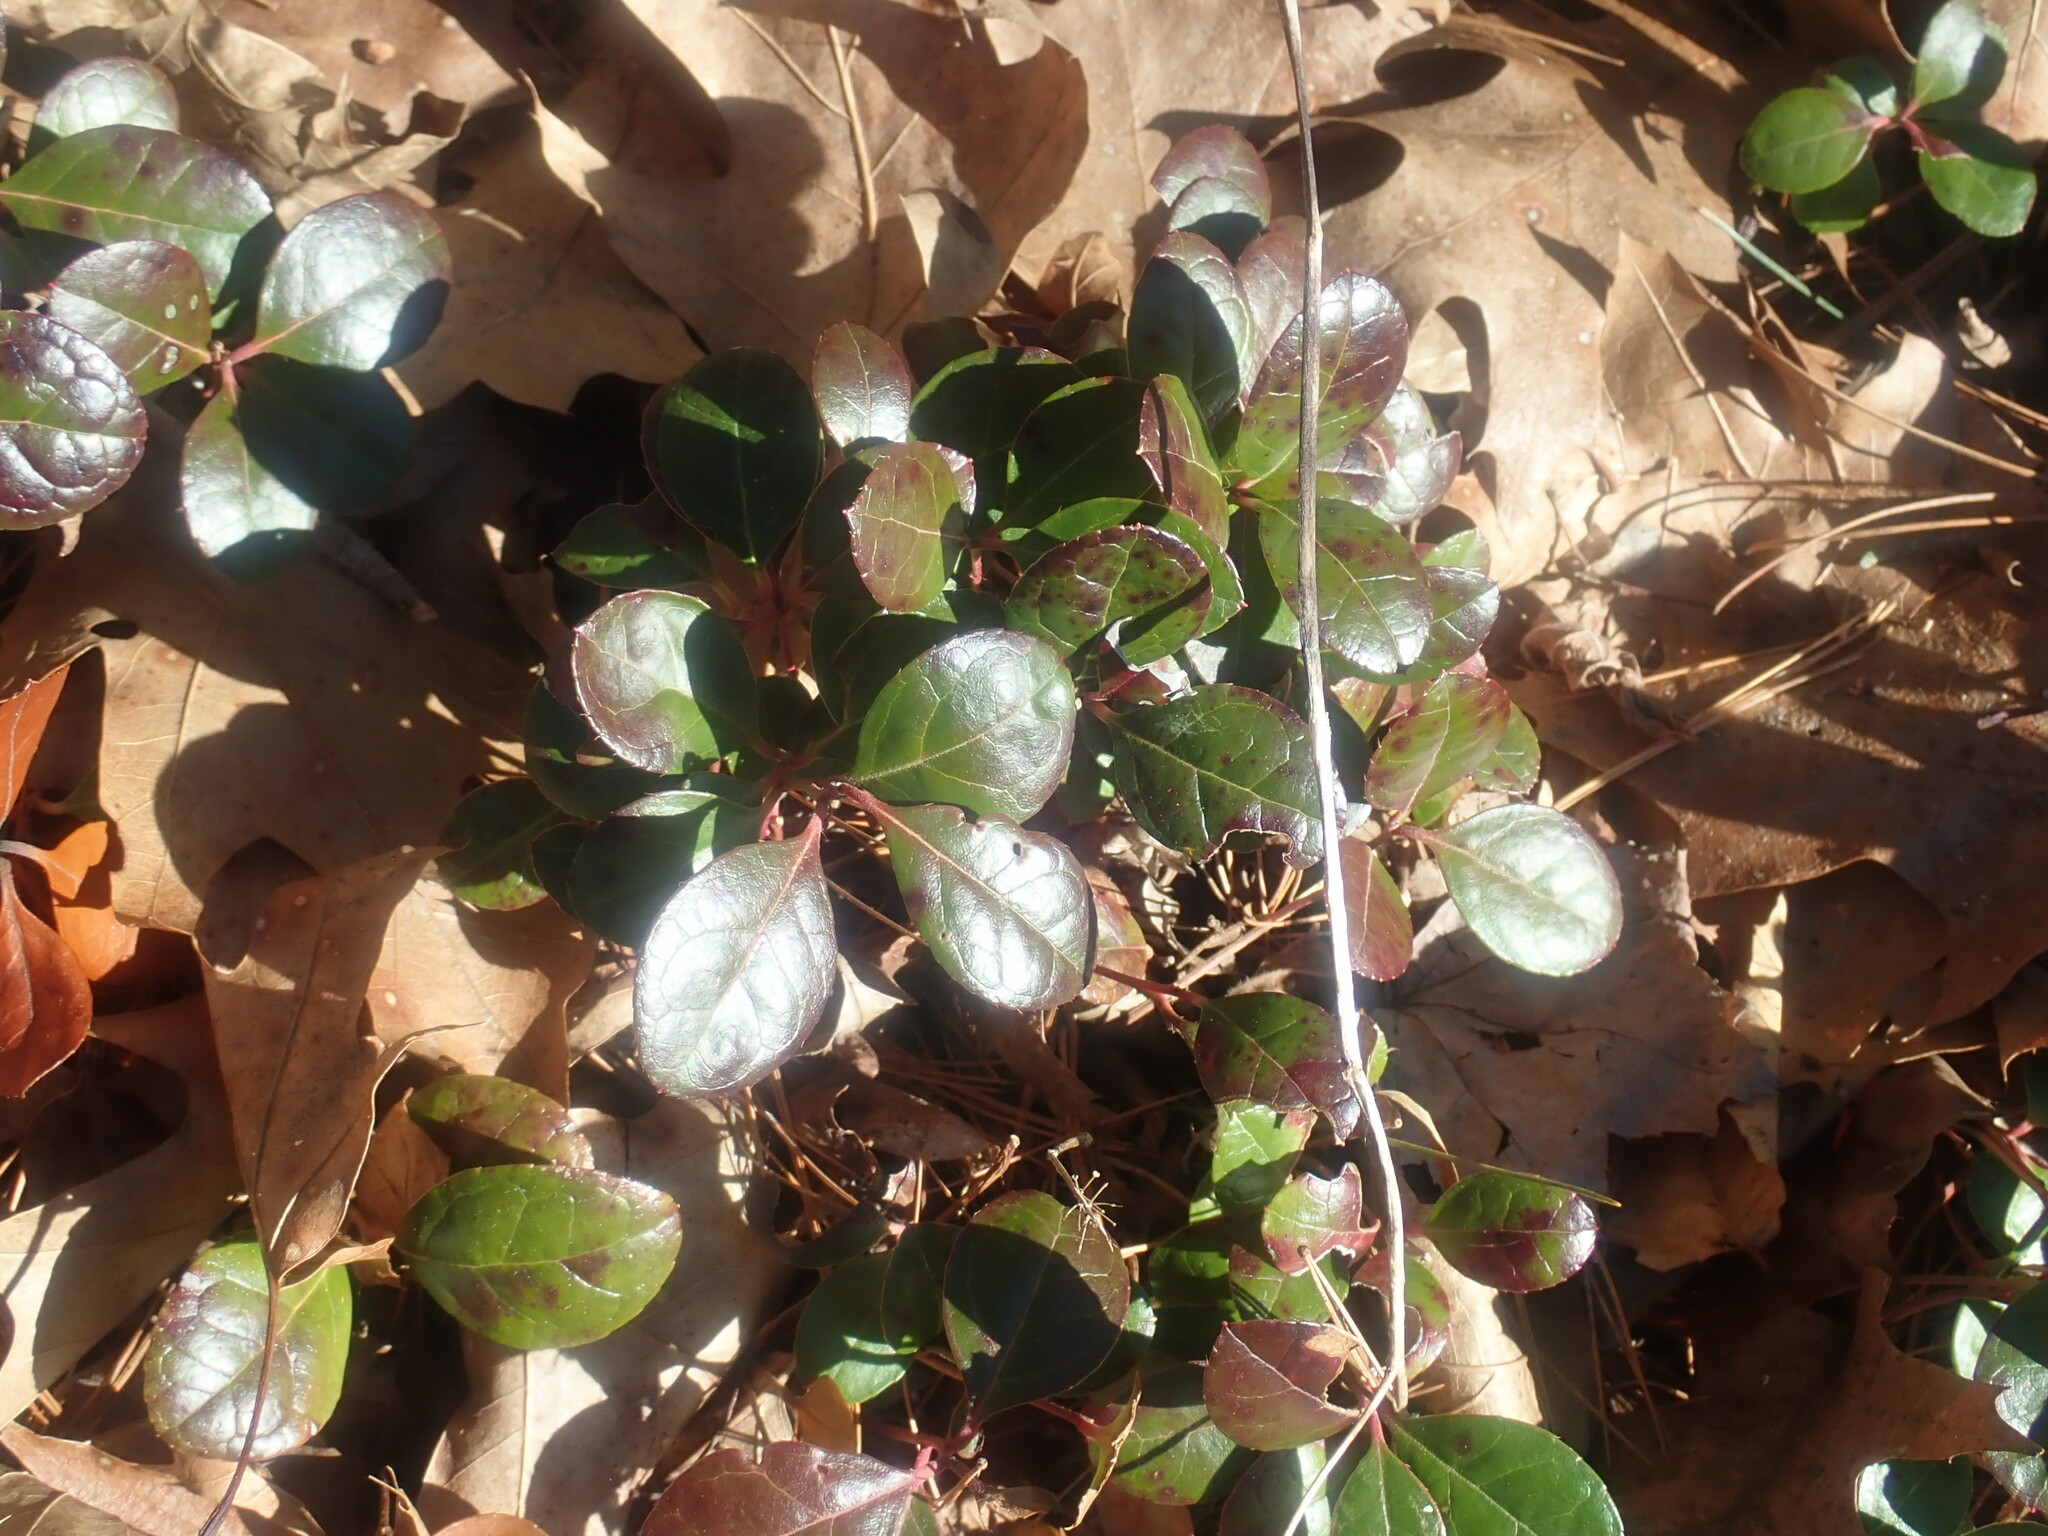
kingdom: Plantae
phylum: Tracheophyta
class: Magnoliopsida
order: Ericales
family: Ericaceae
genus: Gaultheria
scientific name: Gaultheria procumbens
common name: Checkerberry
